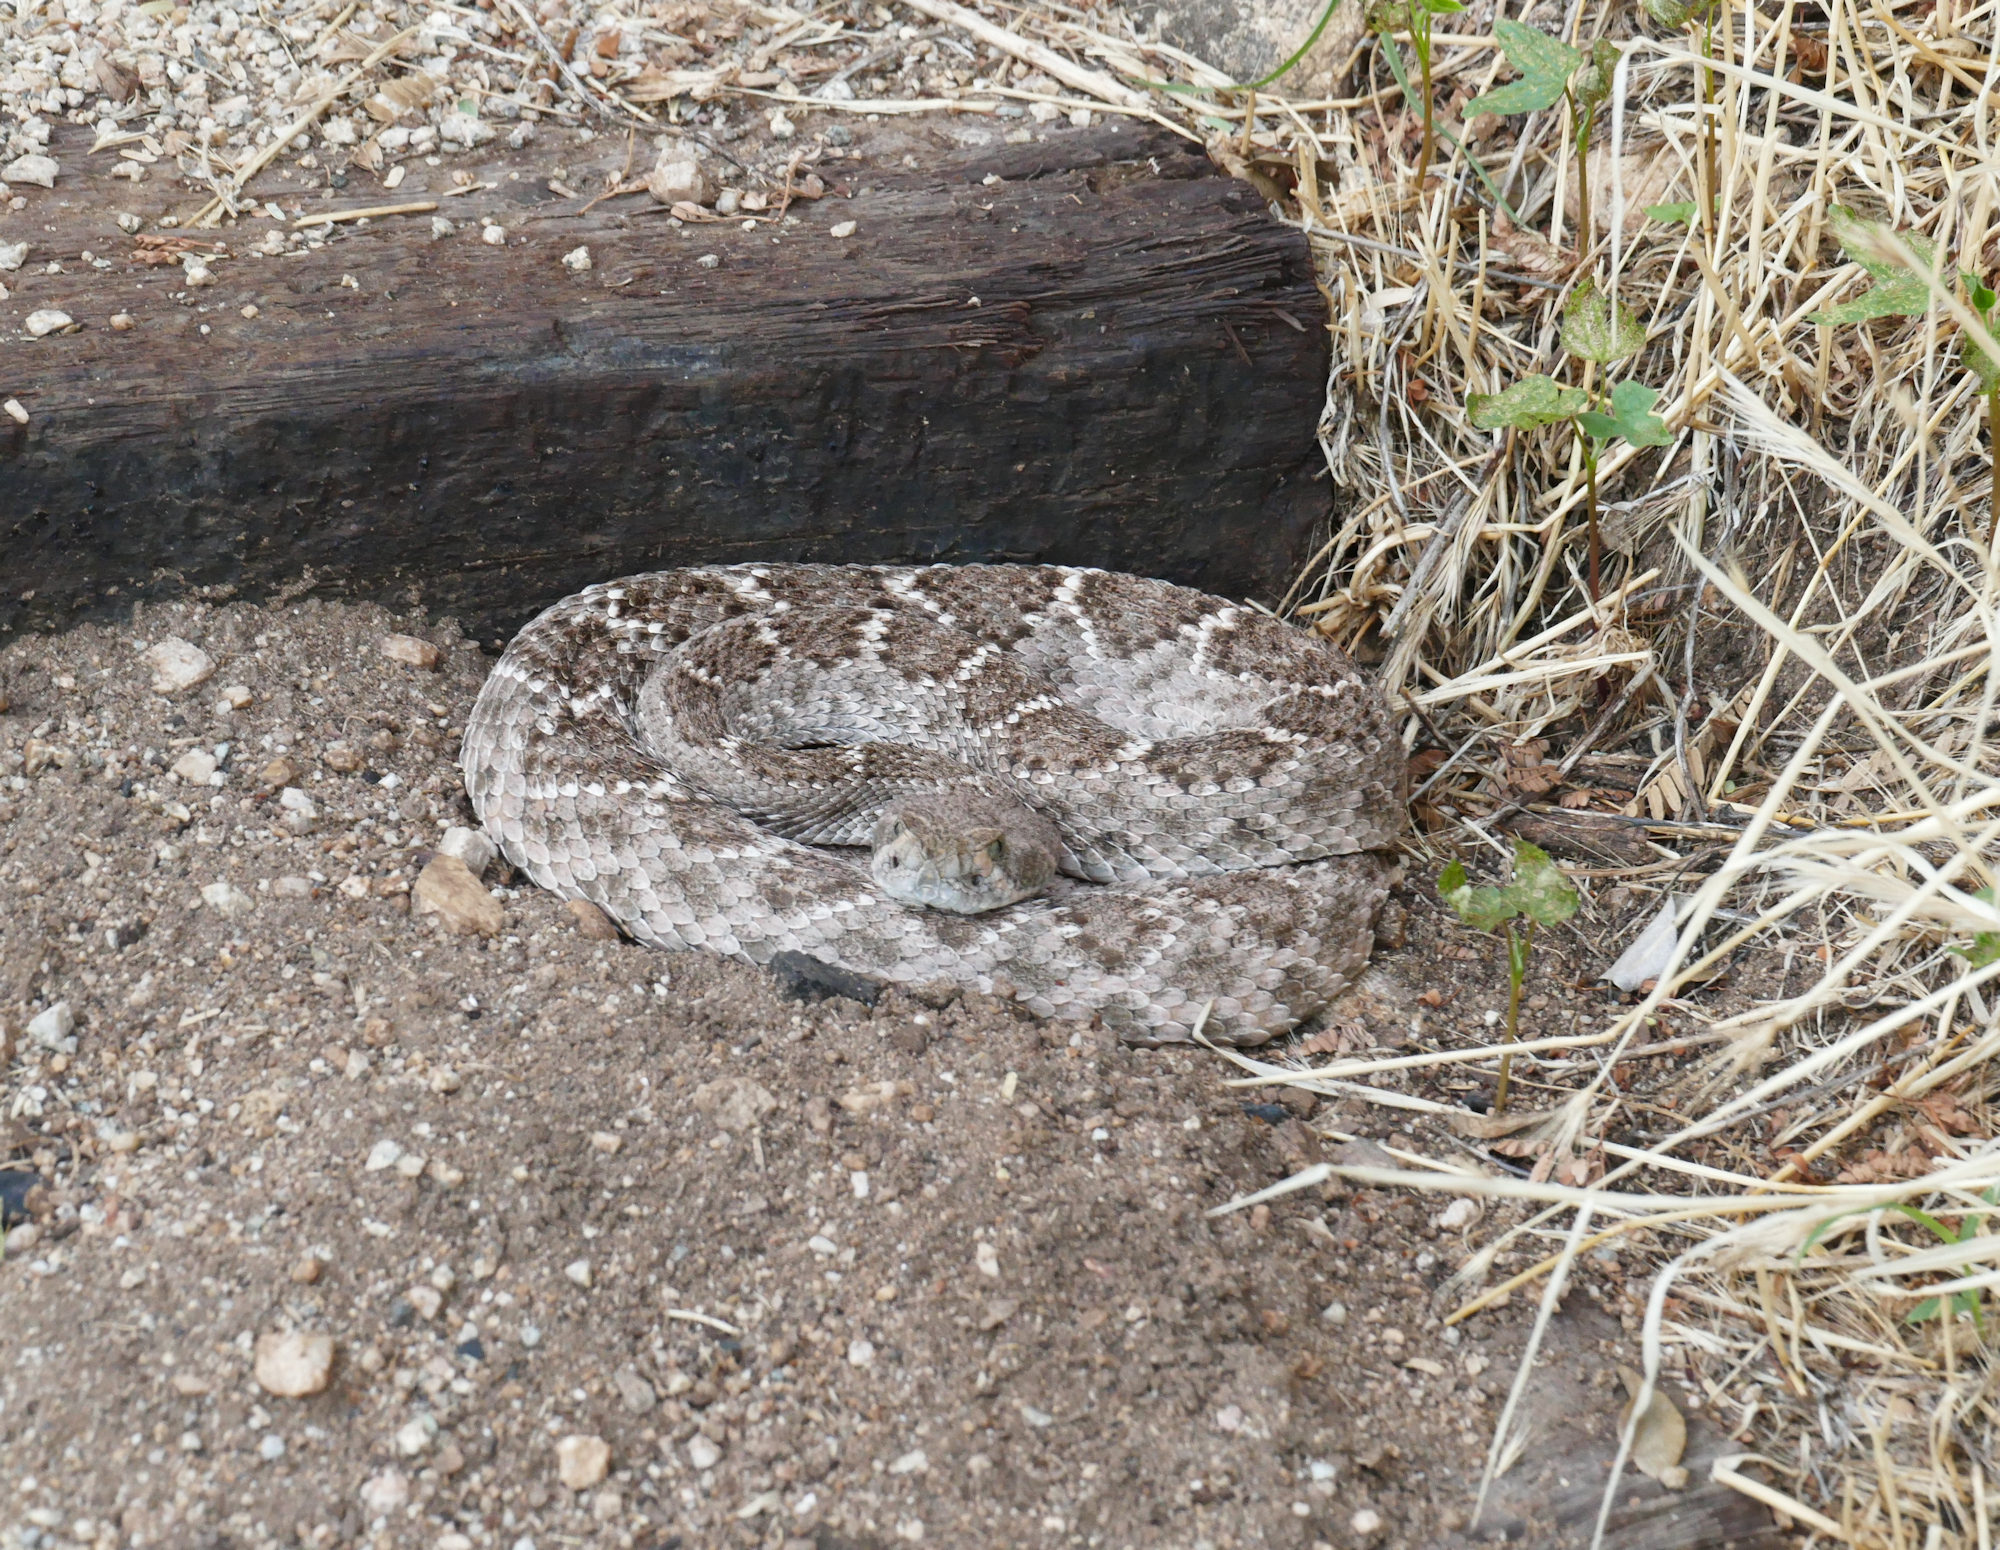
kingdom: Animalia
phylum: Chordata
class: Squamata
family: Viperidae
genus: Crotalus
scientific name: Crotalus atrox
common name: Western diamond-backed rattlesnake
